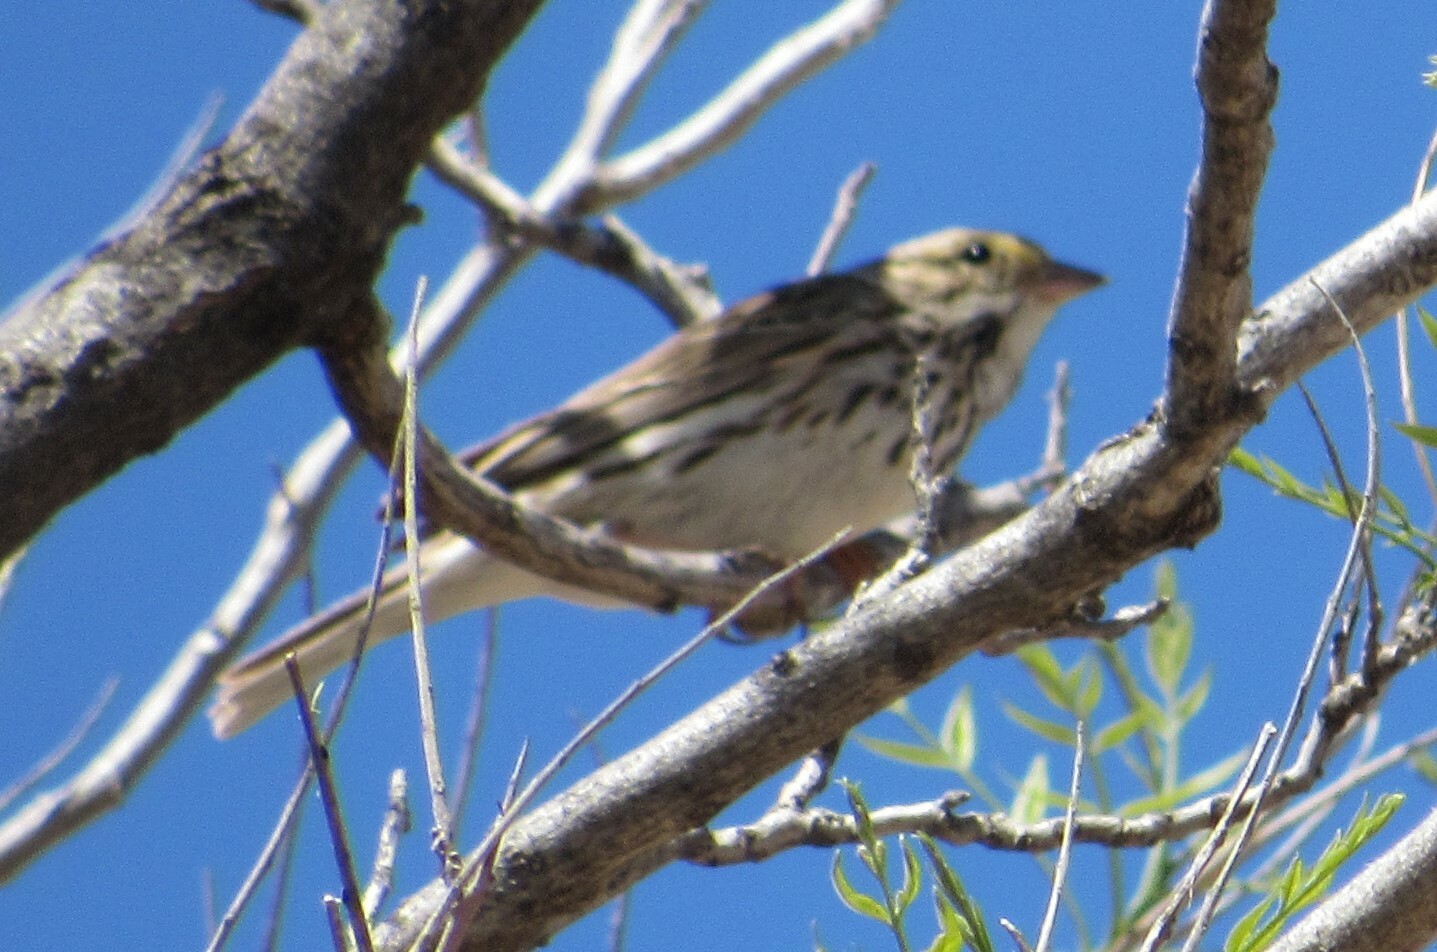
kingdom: Animalia
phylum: Chordata
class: Aves
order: Passeriformes
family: Passerellidae
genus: Passerculus
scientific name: Passerculus sandwichensis
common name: Savannah sparrow
